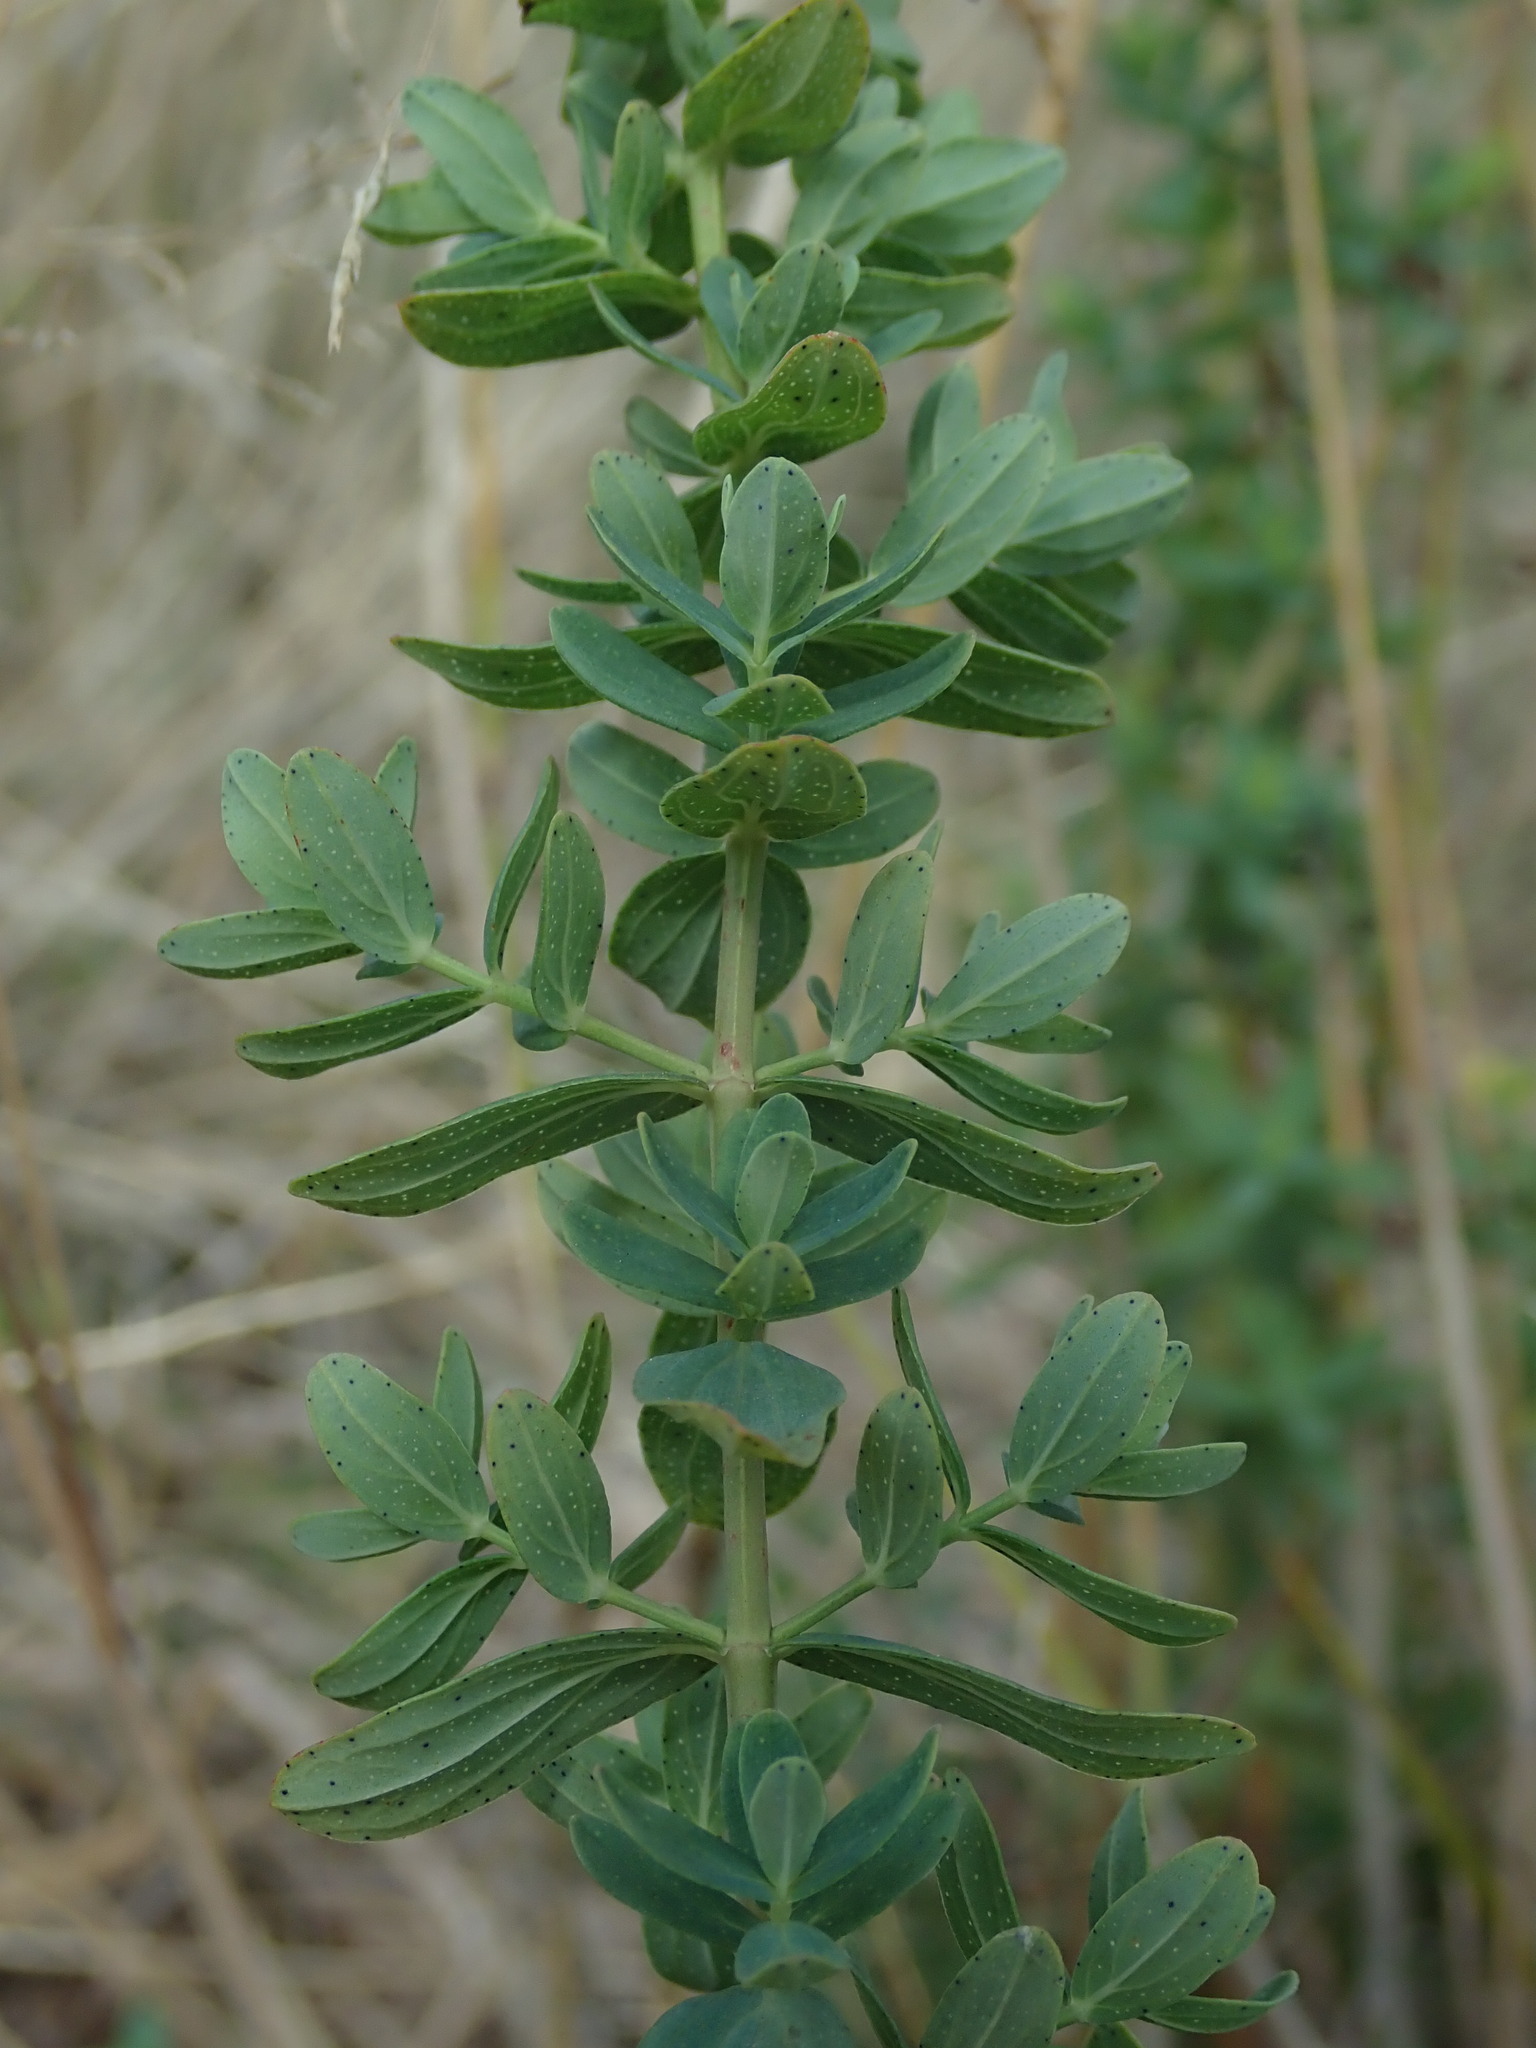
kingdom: Plantae
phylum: Tracheophyta
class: Magnoliopsida
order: Malpighiales
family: Hypericaceae
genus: Hypericum
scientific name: Hypericum perforatum
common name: Common st. johnswort
